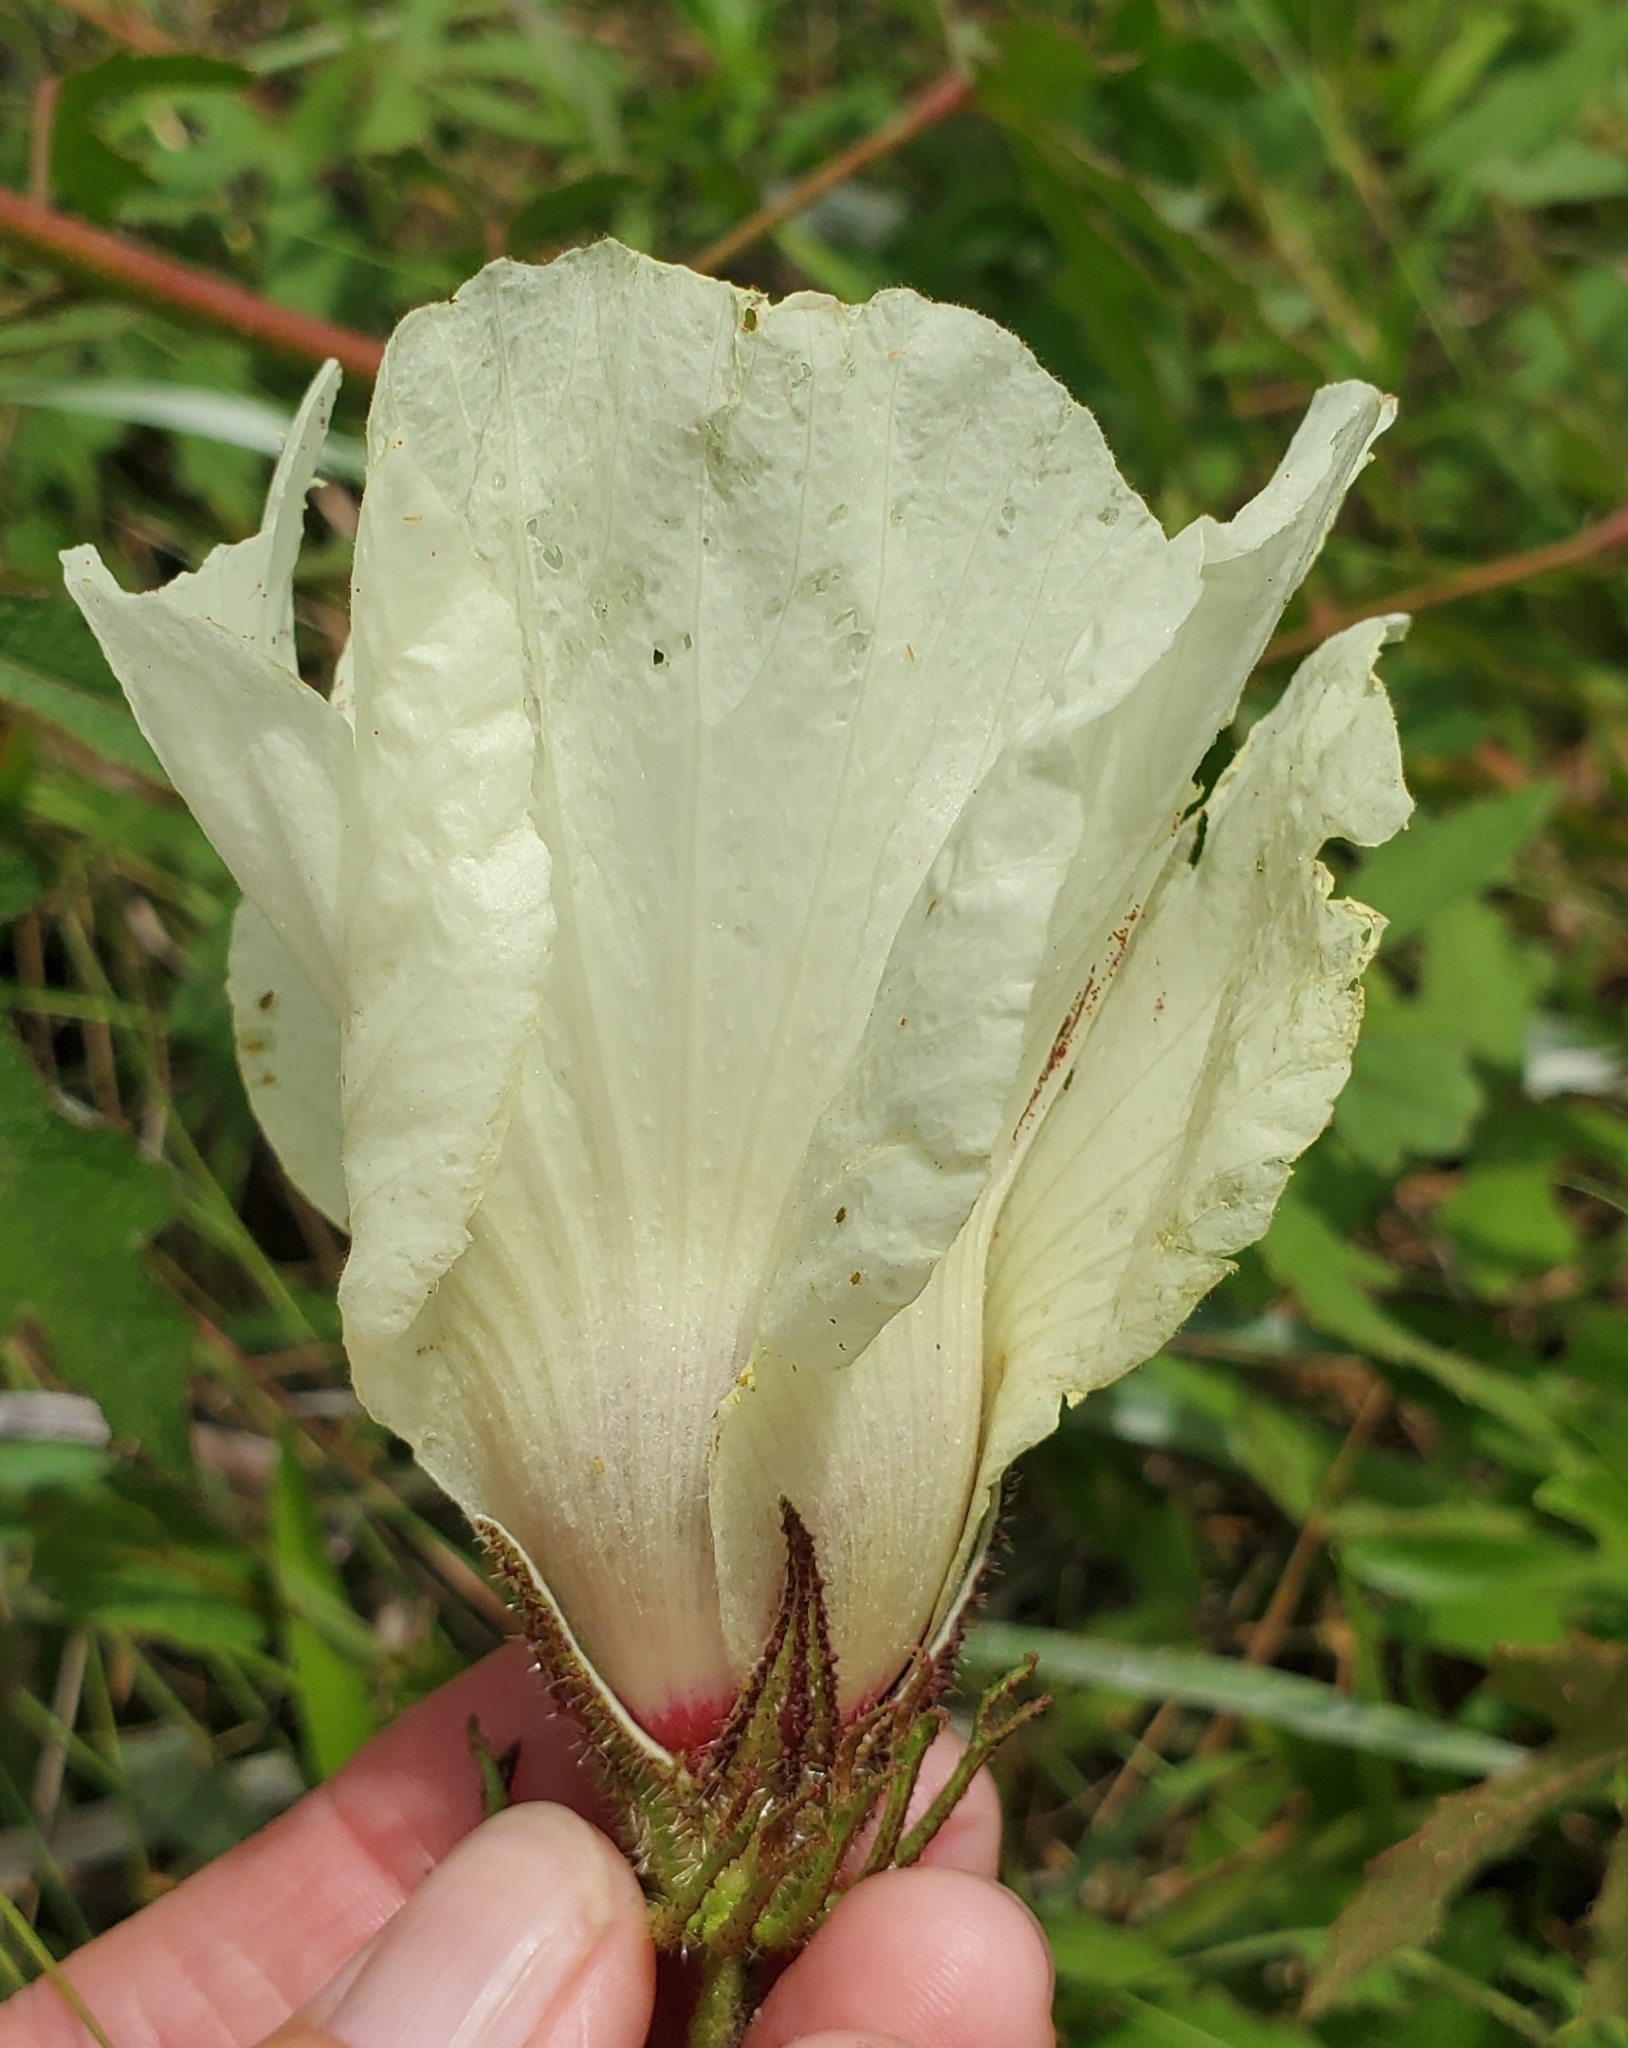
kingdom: Plantae
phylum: Tracheophyta
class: Magnoliopsida
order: Malvales
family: Malvaceae
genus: Hibiscus
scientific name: Hibiscus aculeatus
